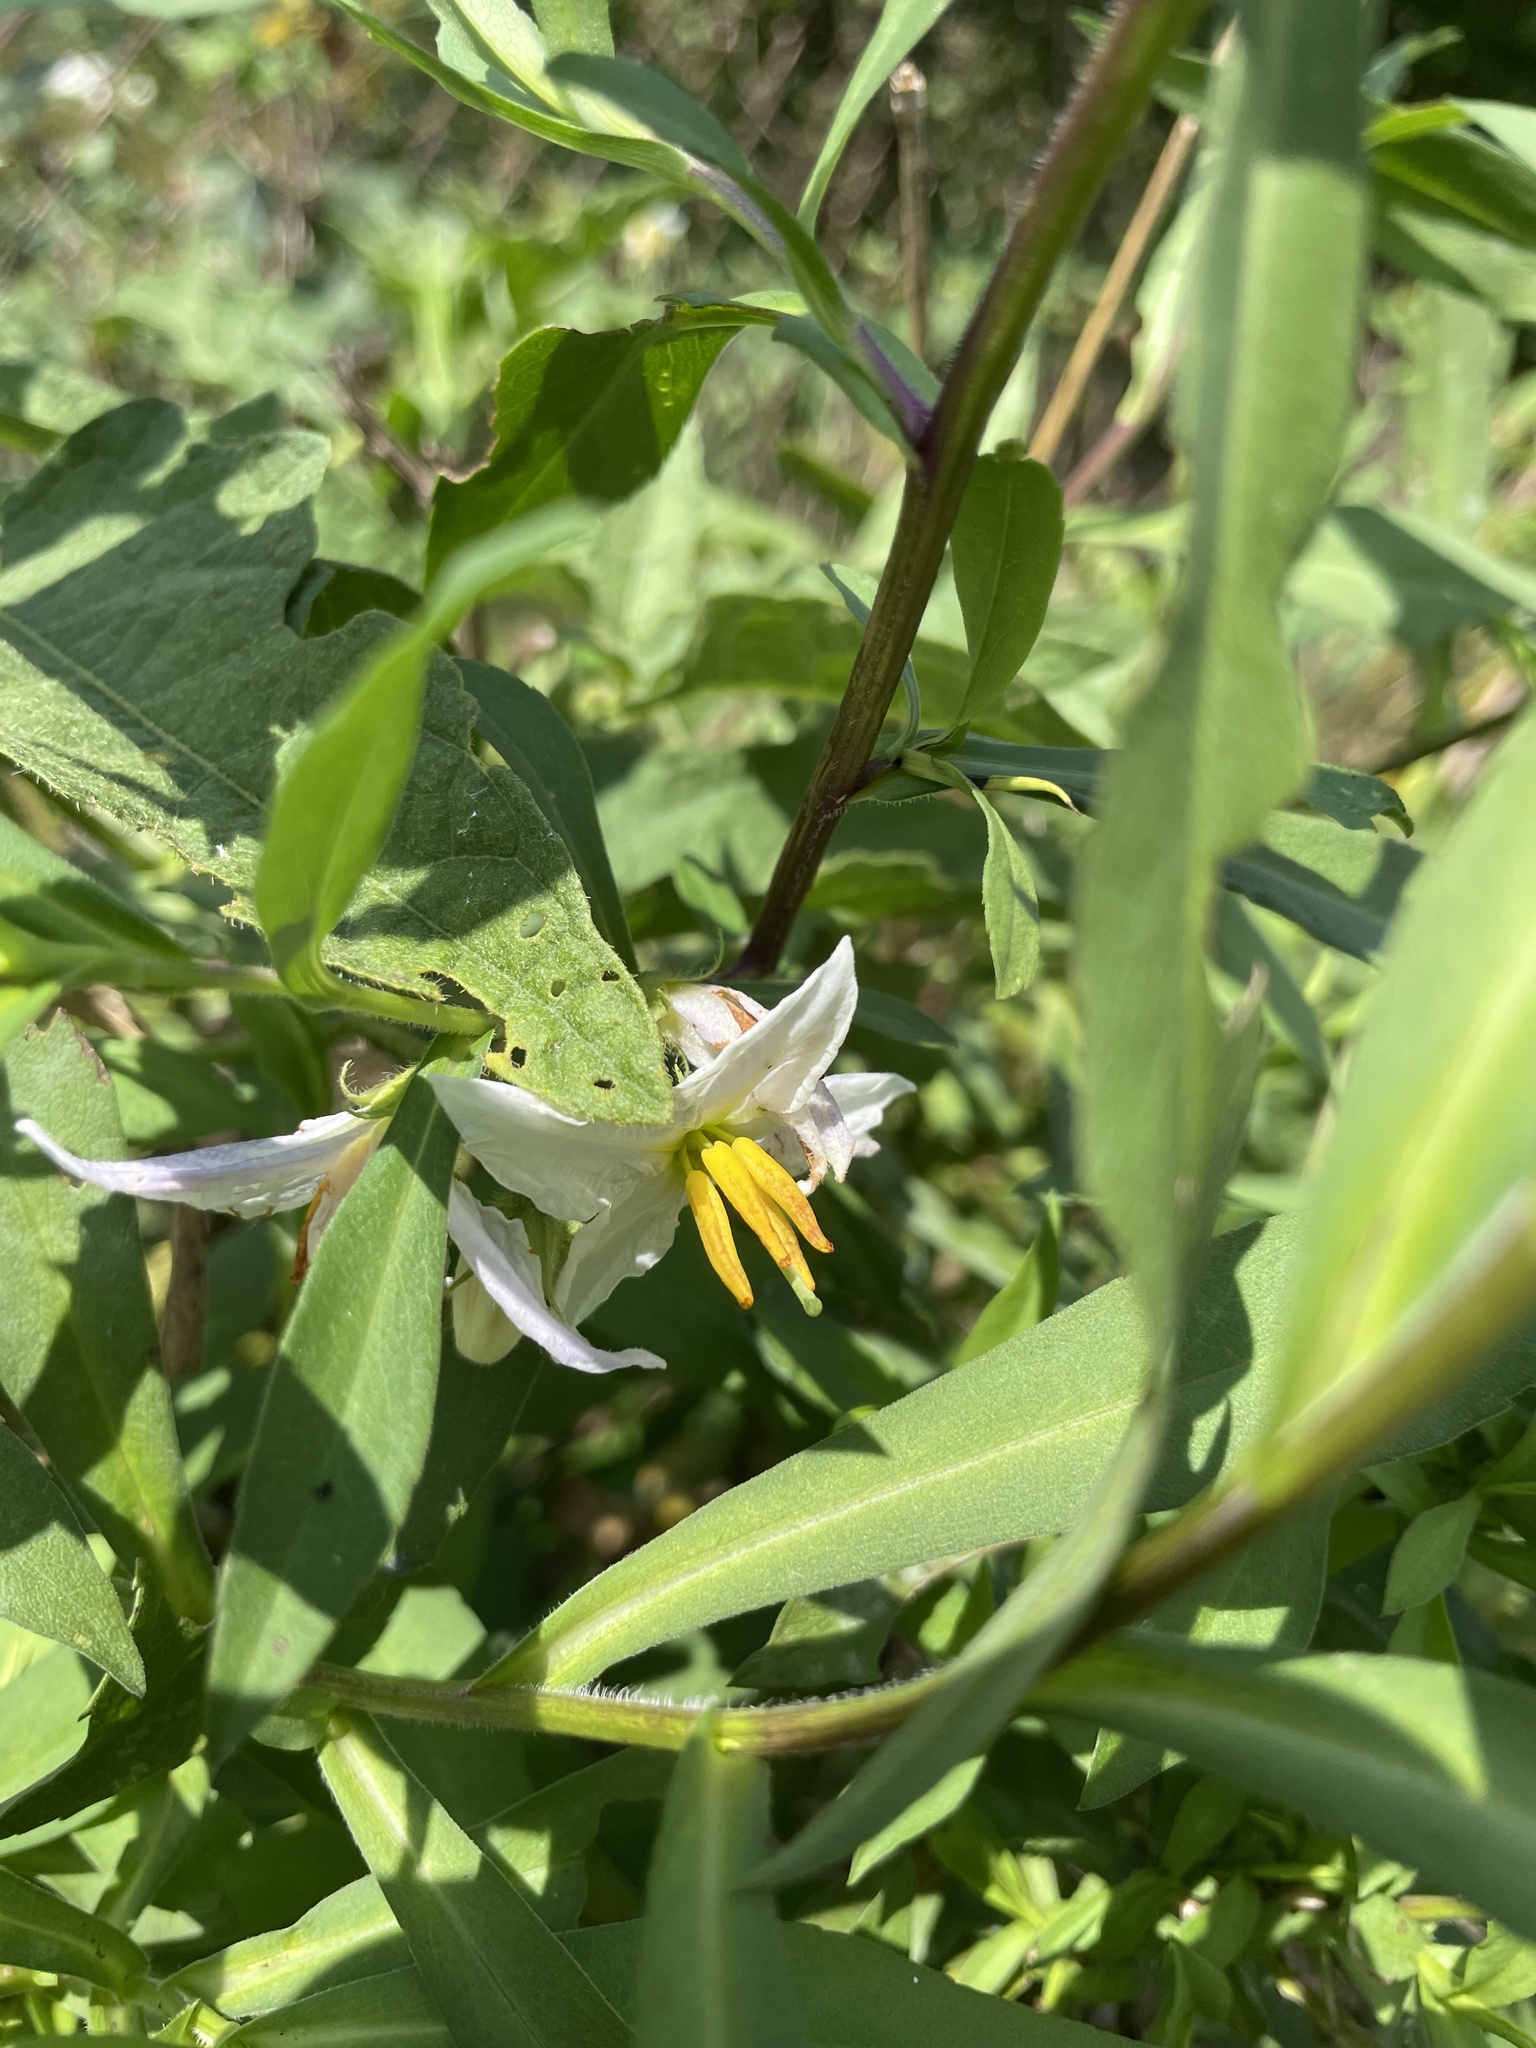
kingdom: Plantae
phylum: Tracheophyta
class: Magnoliopsida
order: Solanales
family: Solanaceae
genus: Solanum
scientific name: Solanum carolinense
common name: Horse-nettle
